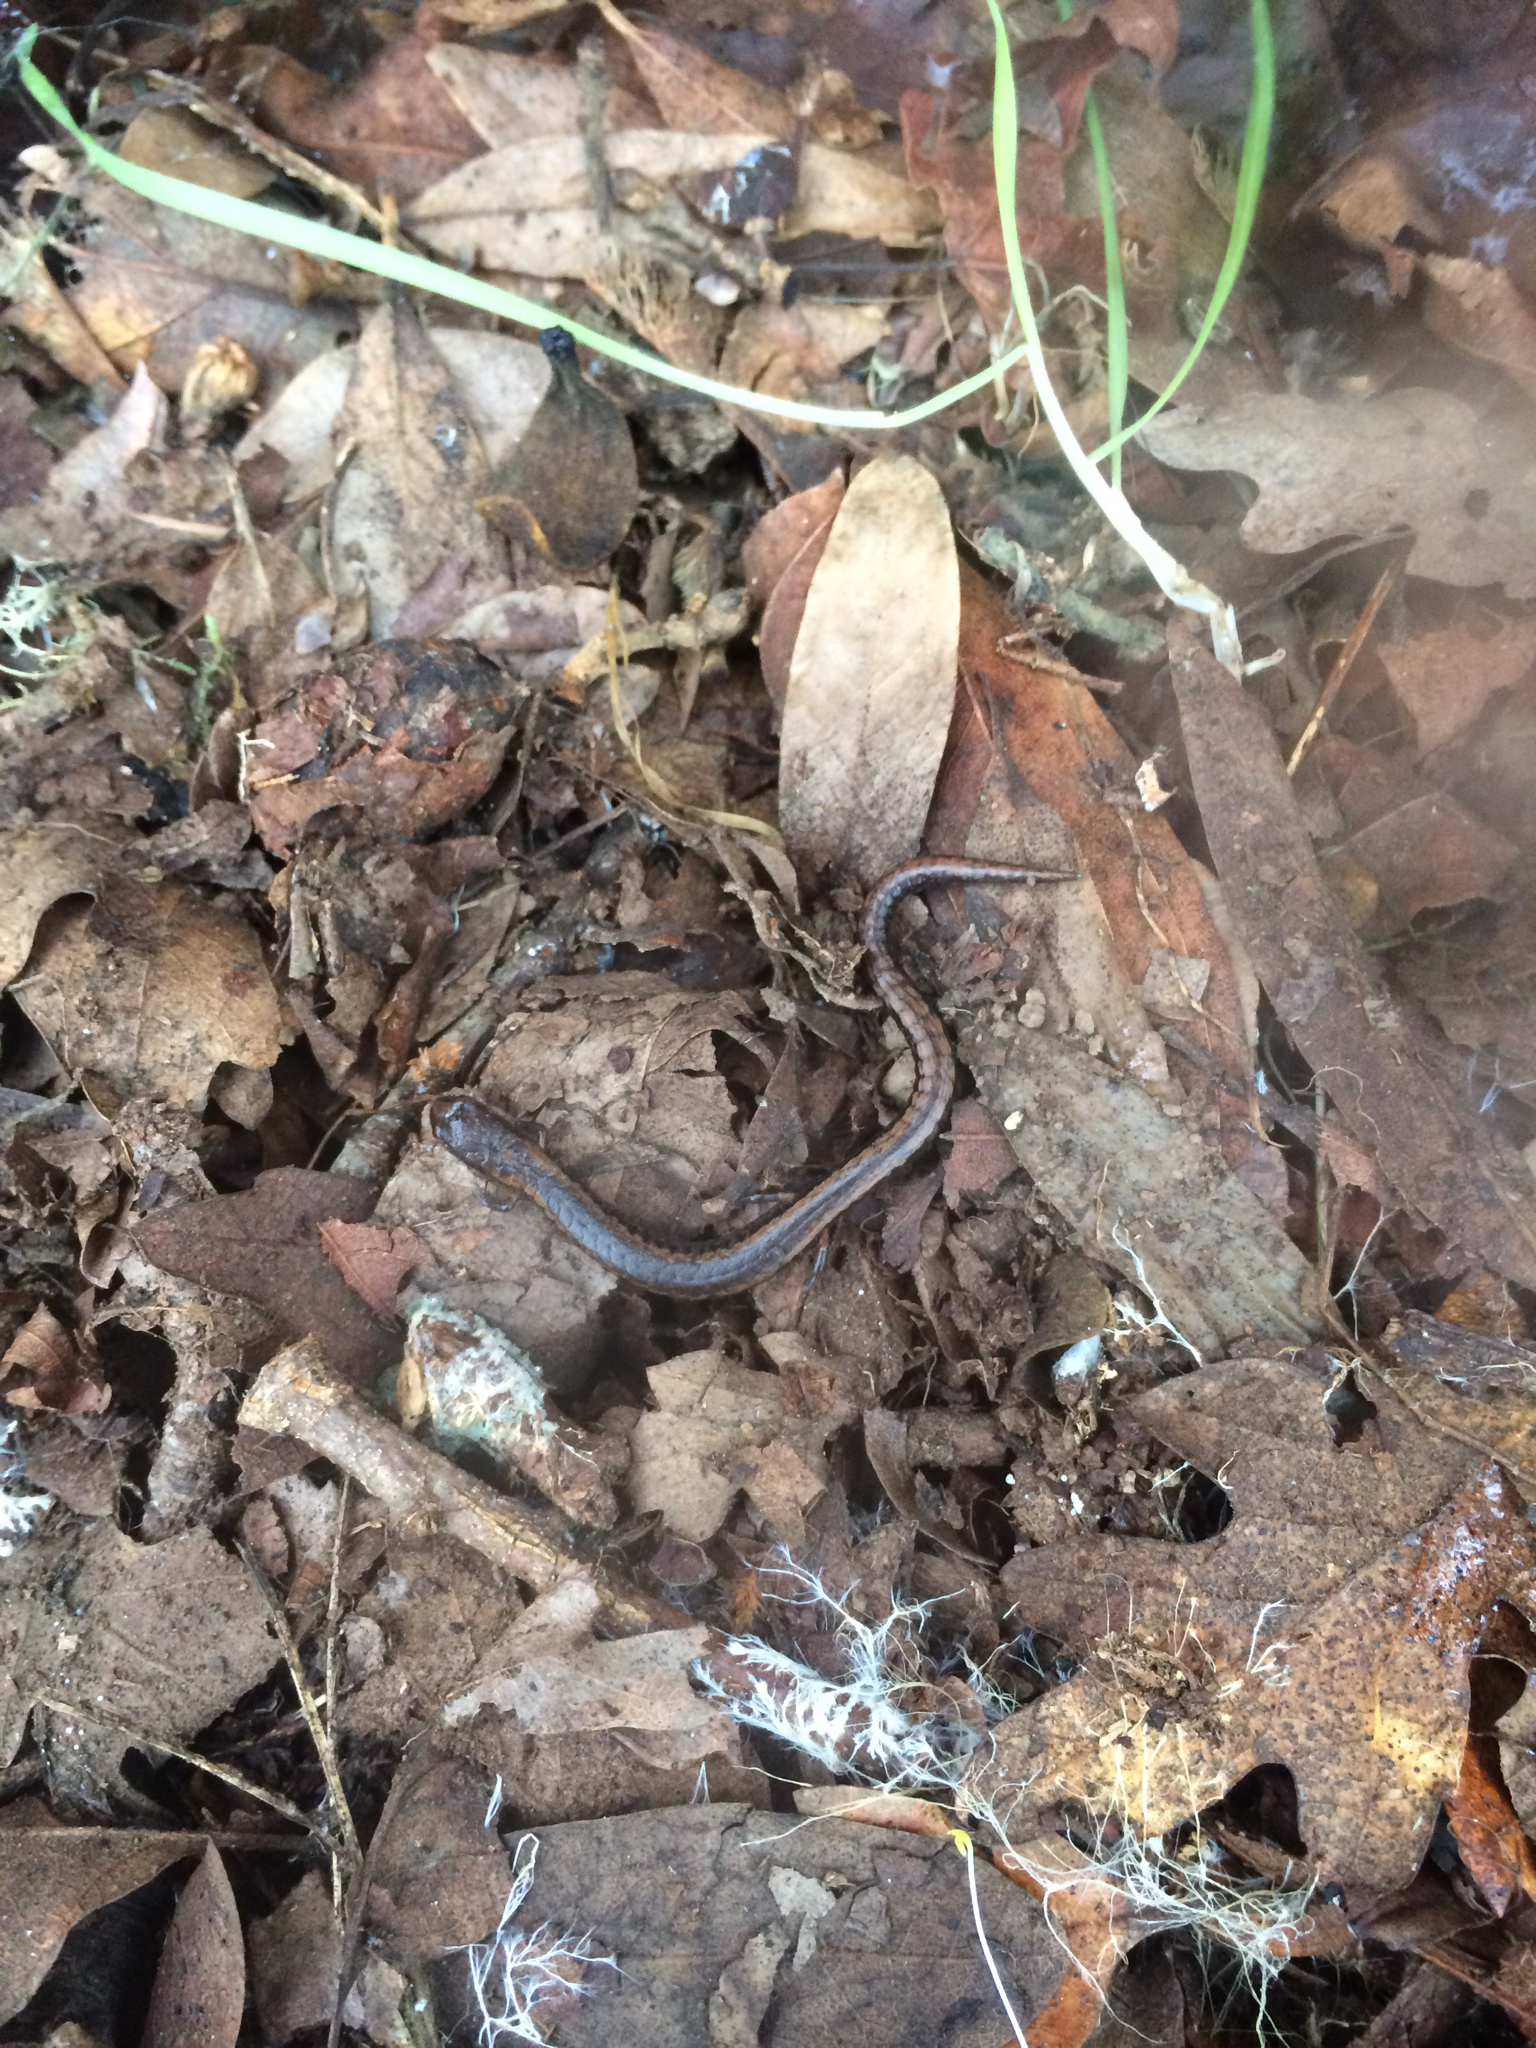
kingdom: Animalia
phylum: Chordata
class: Amphibia
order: Caudata
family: Plethodontidae
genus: Batrachoseps
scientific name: Batrachoseps attenuatus
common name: California slender salamander
